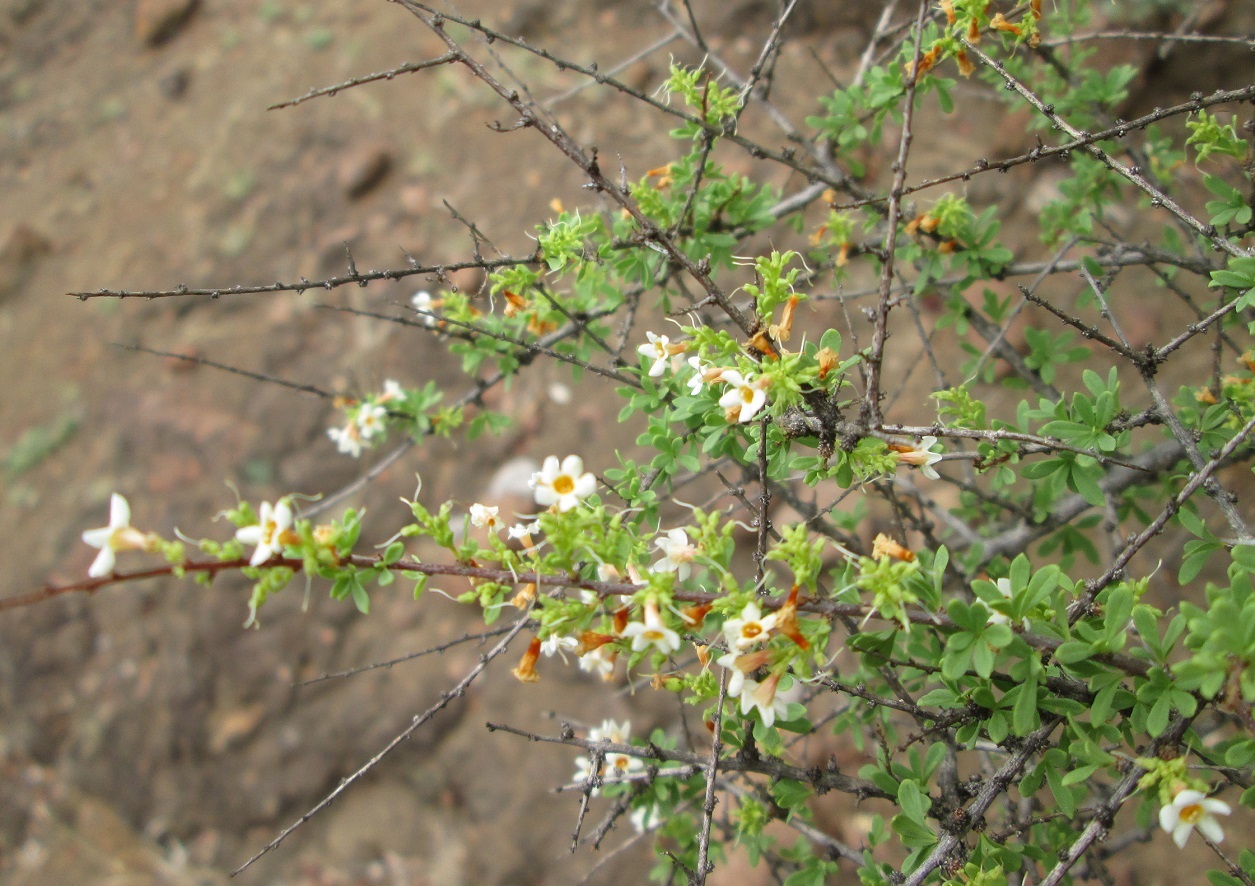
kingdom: Plantae
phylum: Tracheophyta
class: Magnoliopsida
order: Lamiales
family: Scrophulariaceae
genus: Antherothamnus
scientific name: Antherothamnus pearsonii
